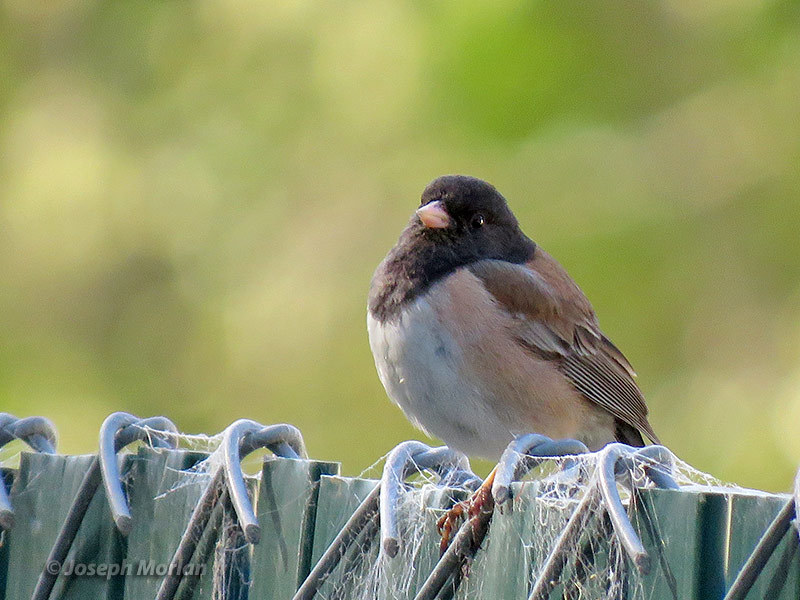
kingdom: Animalia
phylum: Chordata
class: Aves
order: Passeriformes
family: Passerellidae
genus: Junco
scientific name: Junco hyemalis
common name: Dark-eyed junco
